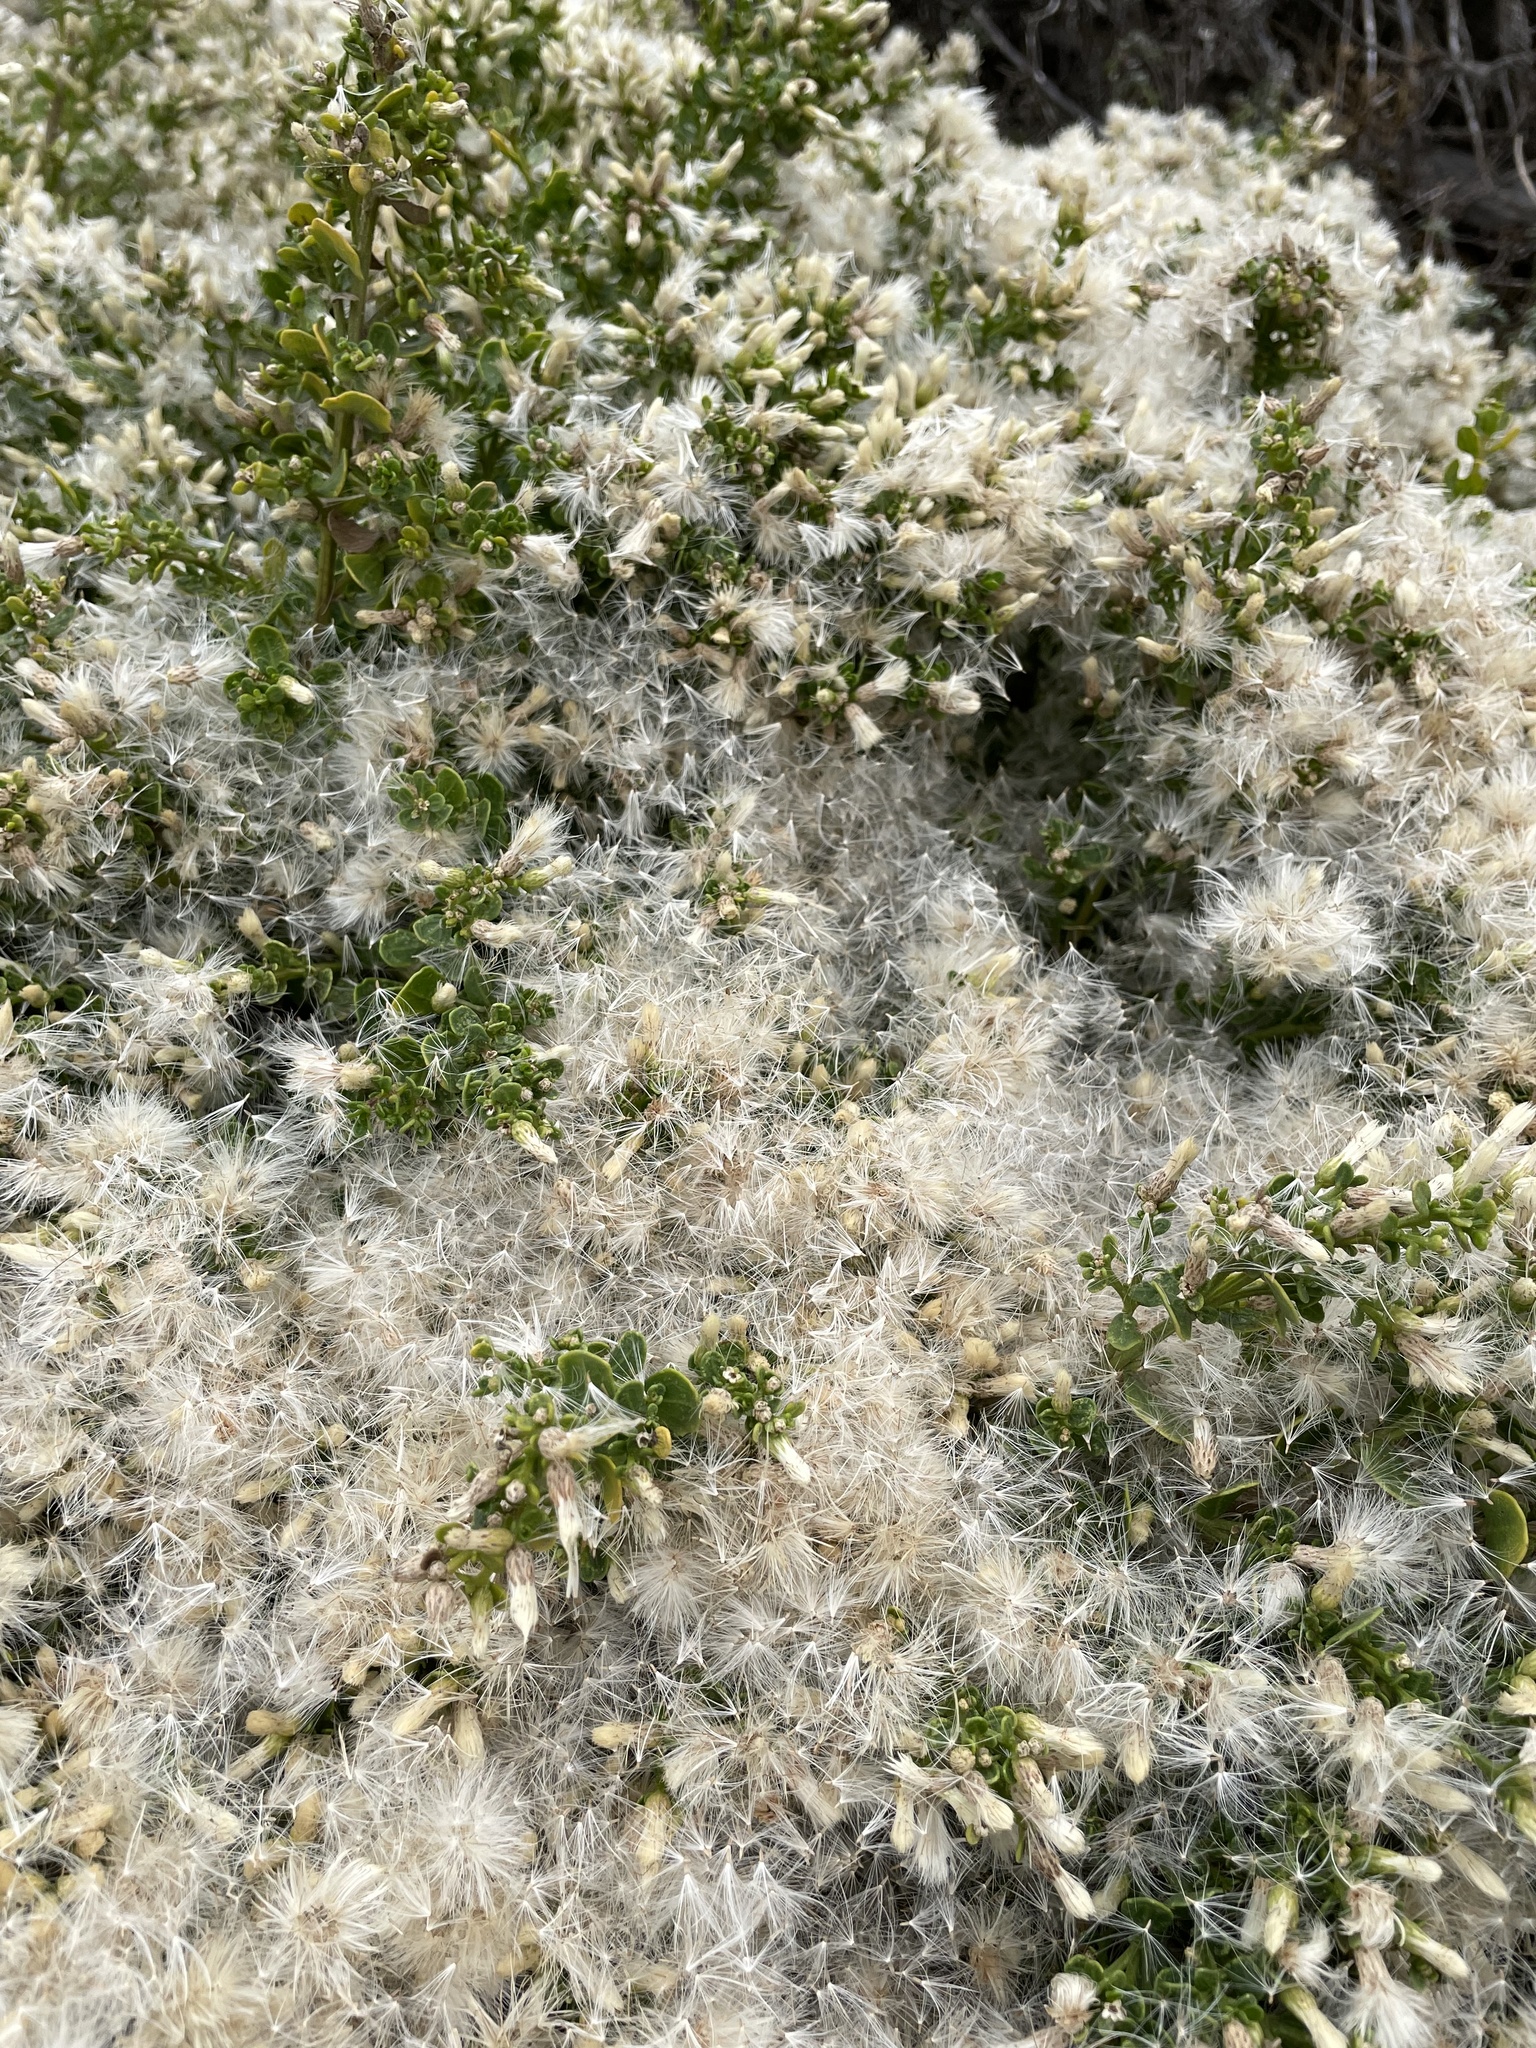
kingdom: Plantae
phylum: Tracheophyta
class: Magnoliopsida
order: Asterales
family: Asteraceae
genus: Baccharis
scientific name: Baccharis pilularis
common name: Coyotebrush
